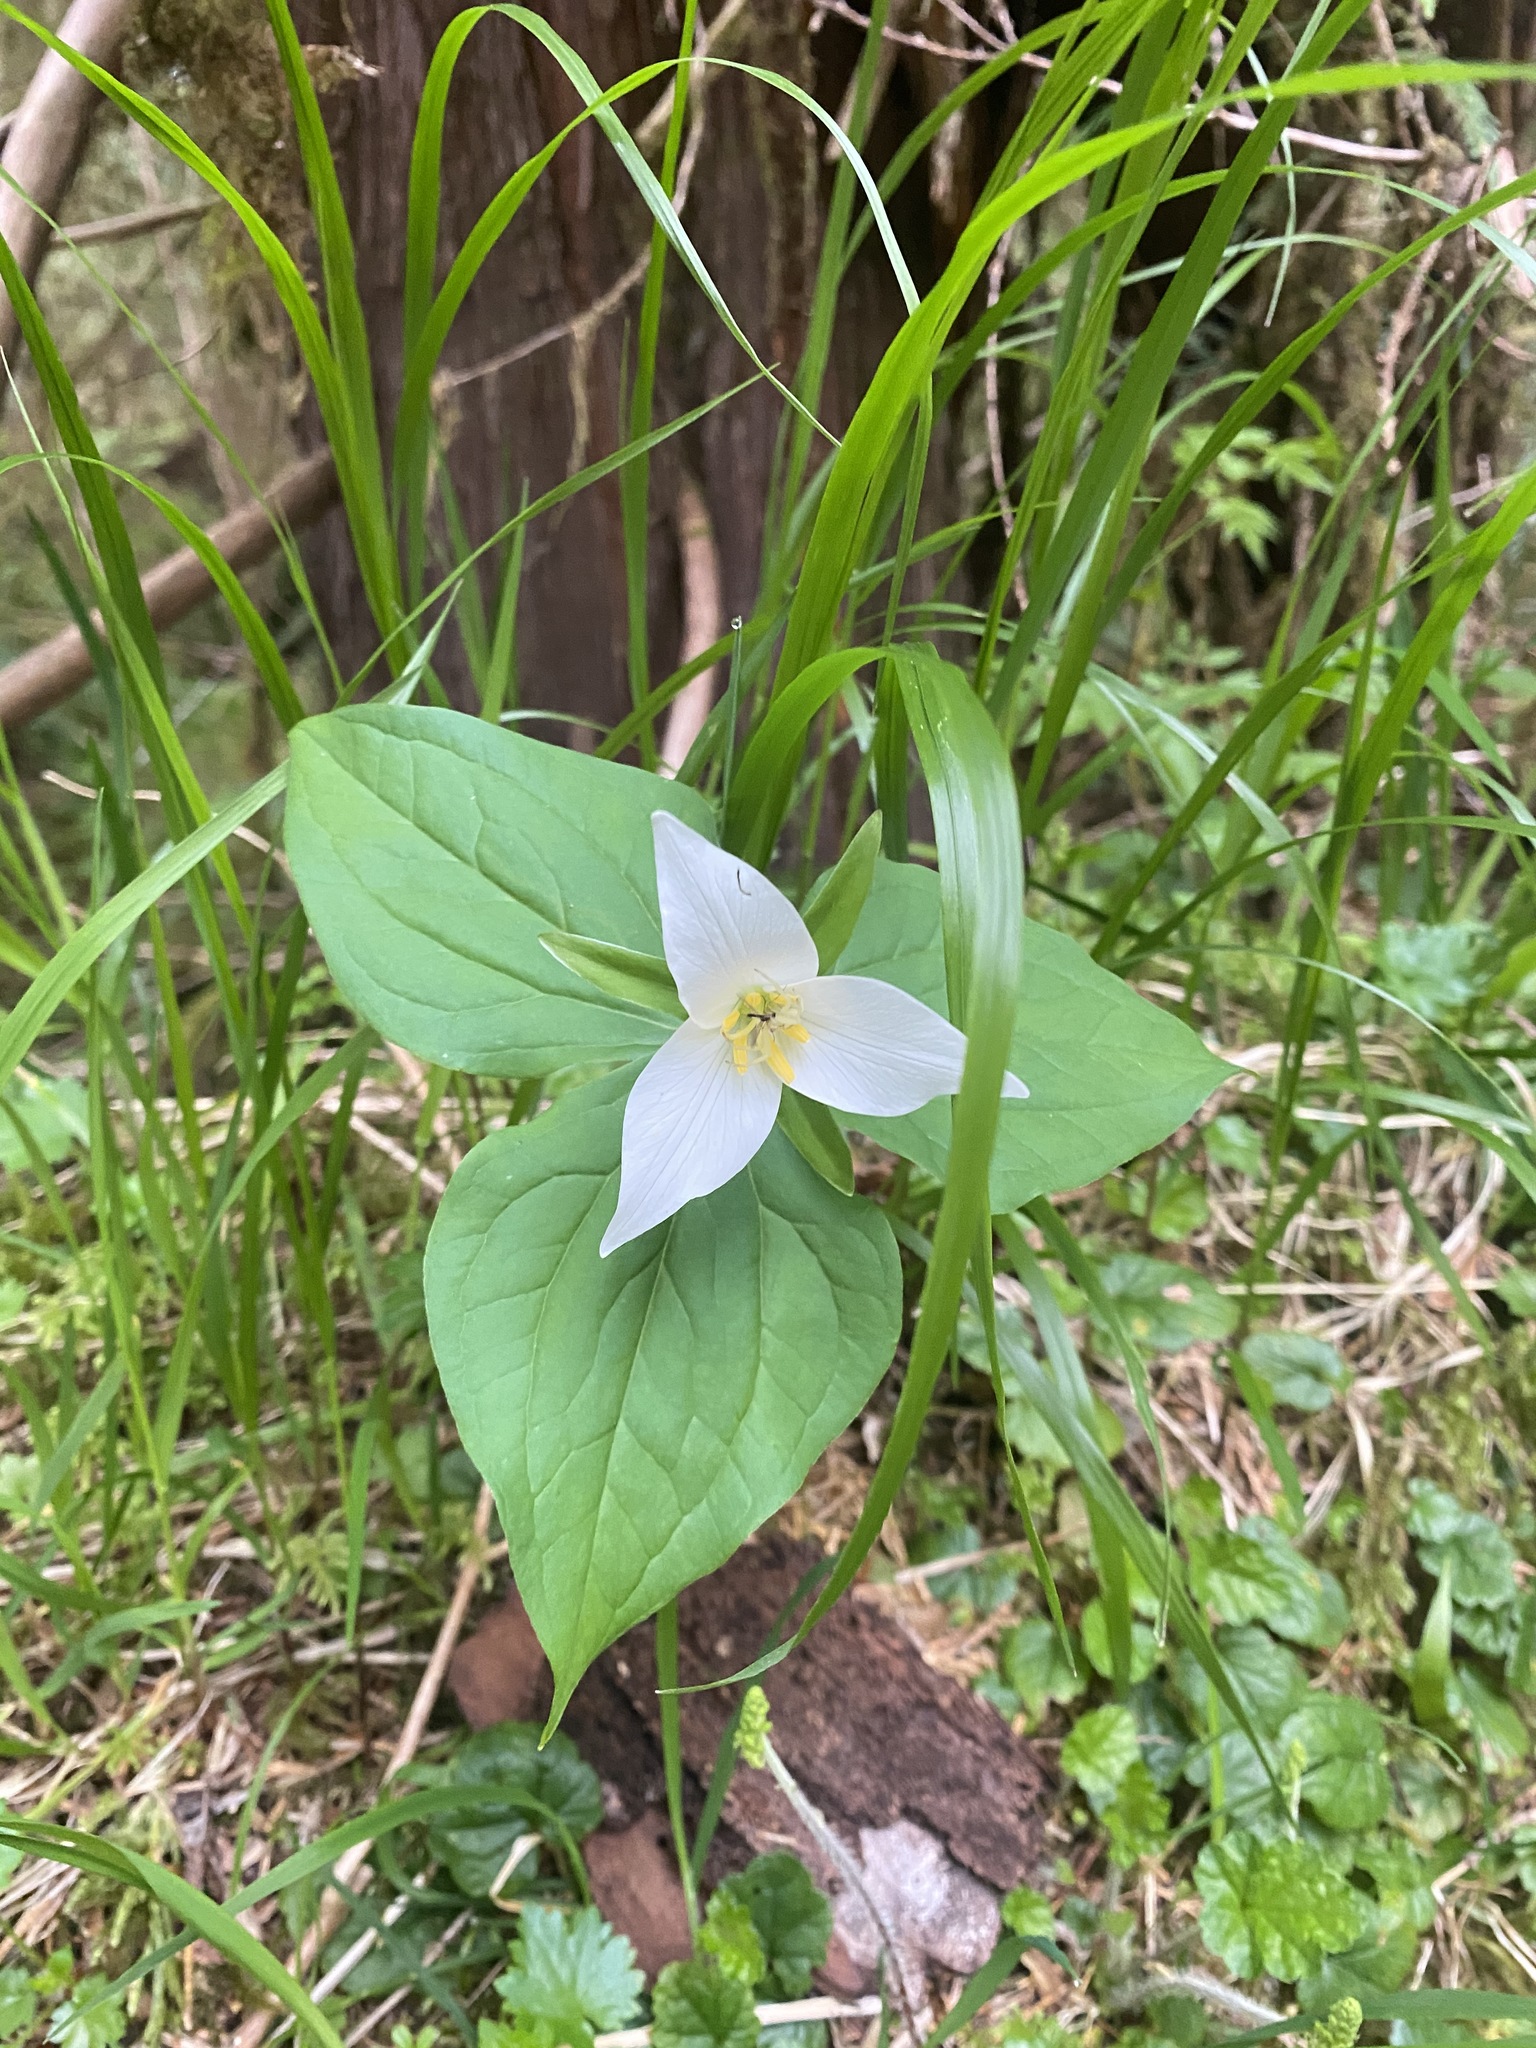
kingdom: Plantae
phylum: Tracheophyta
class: Liliopsida
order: Liliales
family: Melanthiaceae
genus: Trillium
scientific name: Trillium ovatum
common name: Pacific trillium
